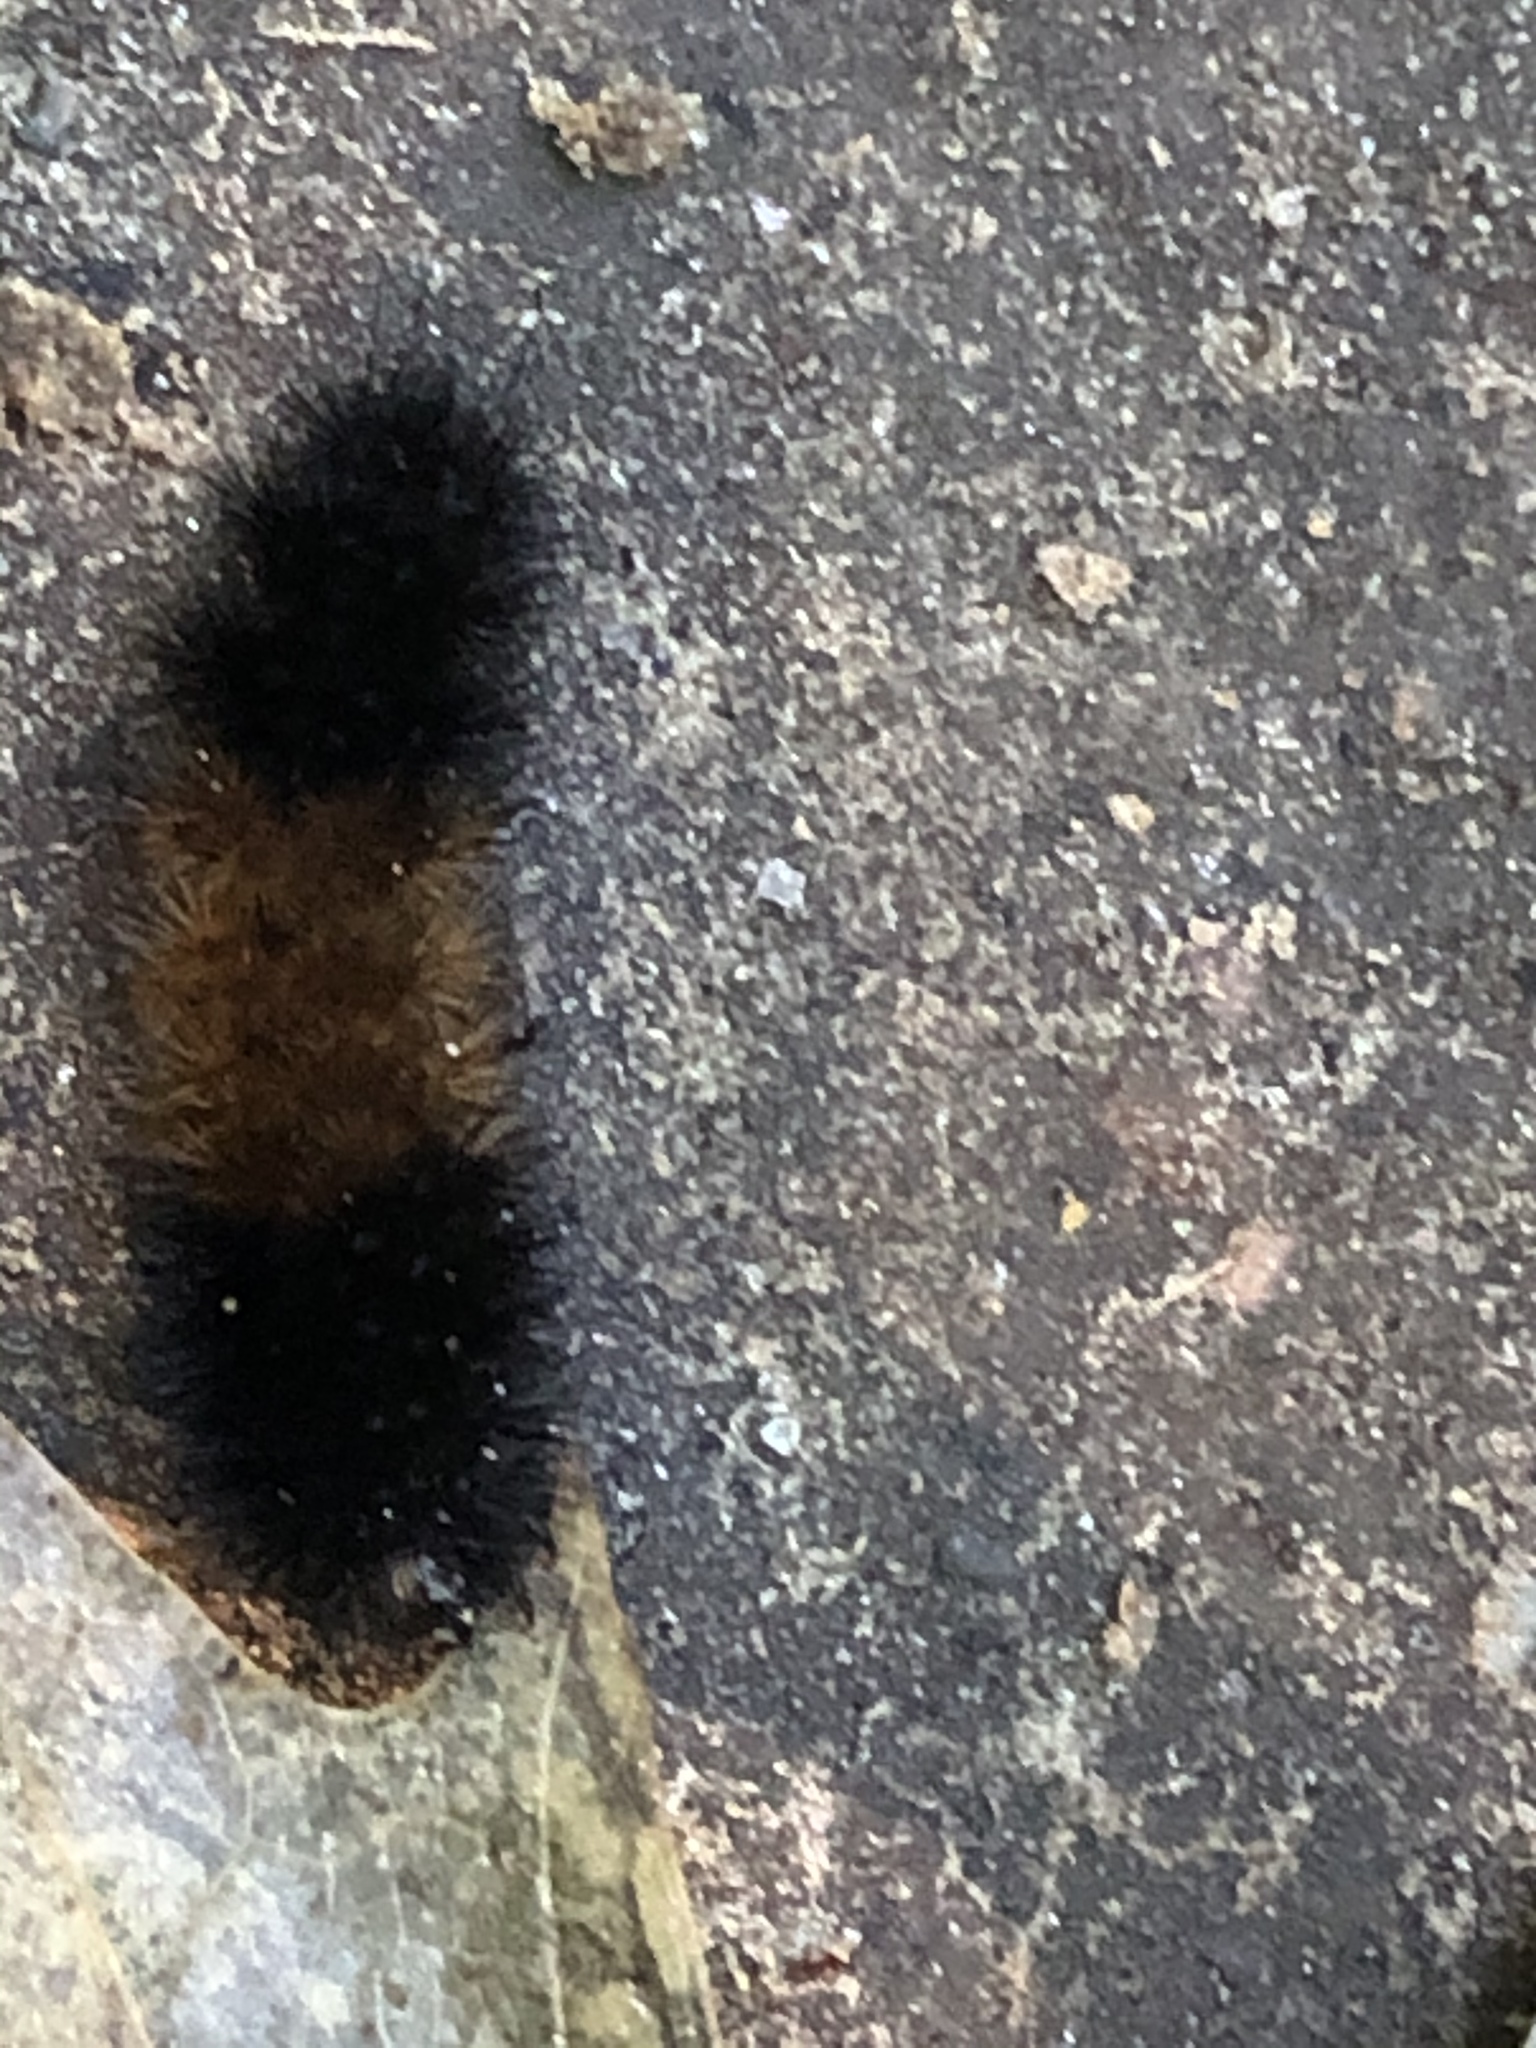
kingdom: Animalia
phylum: Arthropoda
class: Insecta
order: Lepidoptera
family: Erebidae
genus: Pyrrharctia
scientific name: Pyrrharctia isabella
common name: Isabella tiger moth
